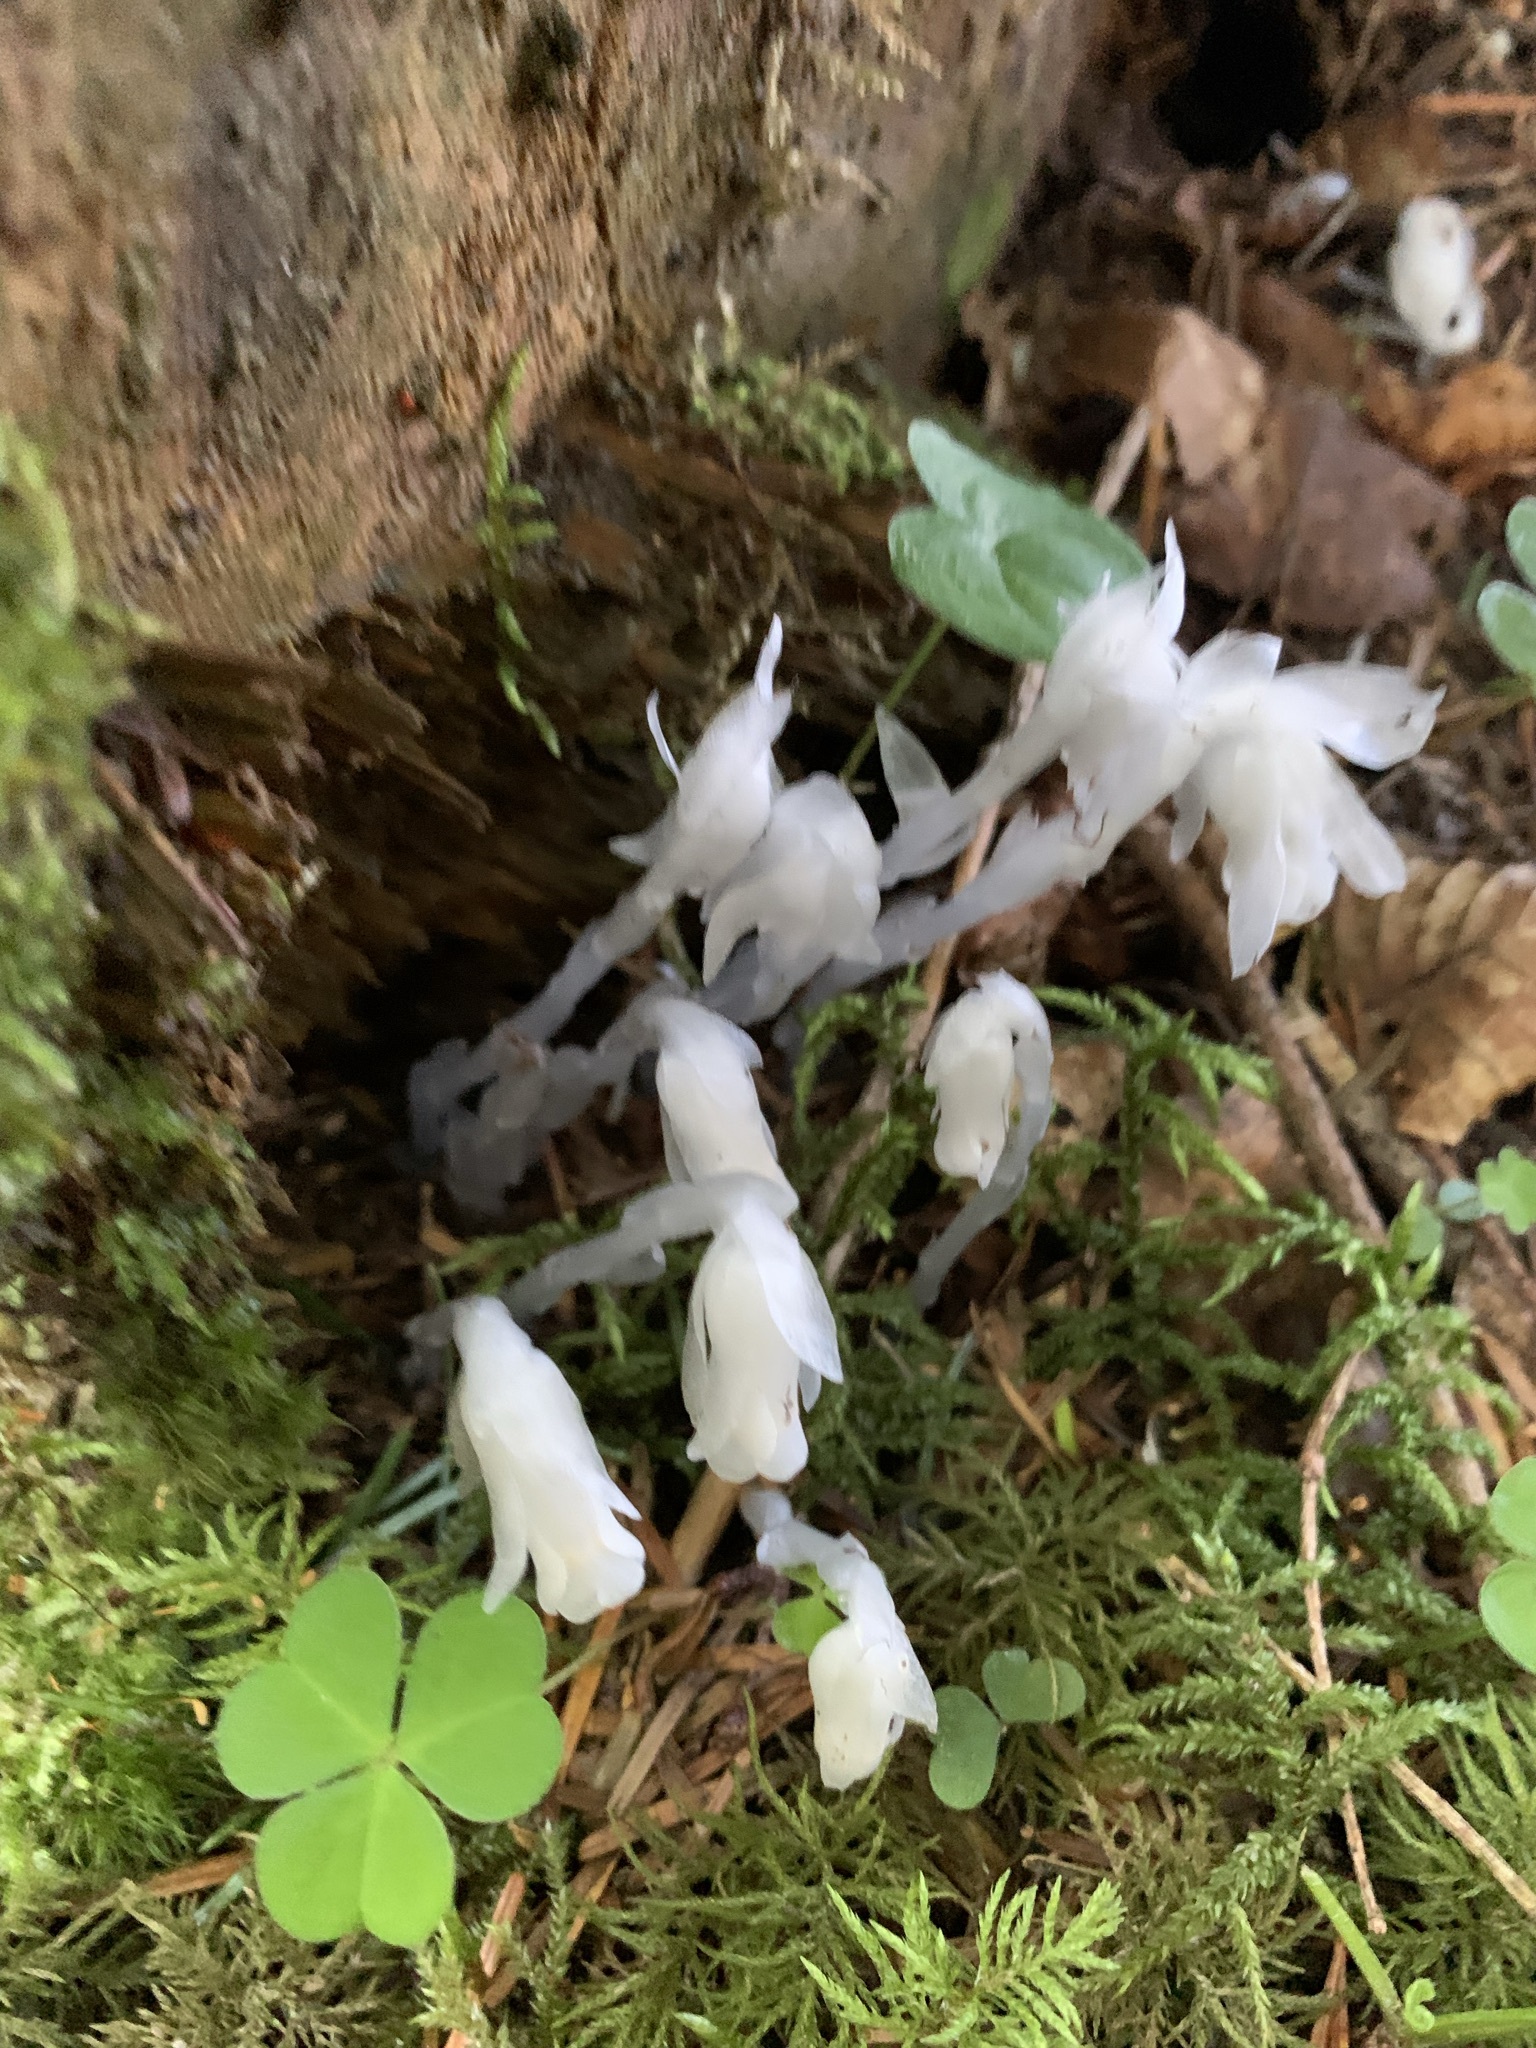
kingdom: Plantae
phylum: Tracheophyta
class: Magnoliopsida
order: Ericales
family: Ericaceae
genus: Monotropastrum
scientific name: Monotropastrum humile
